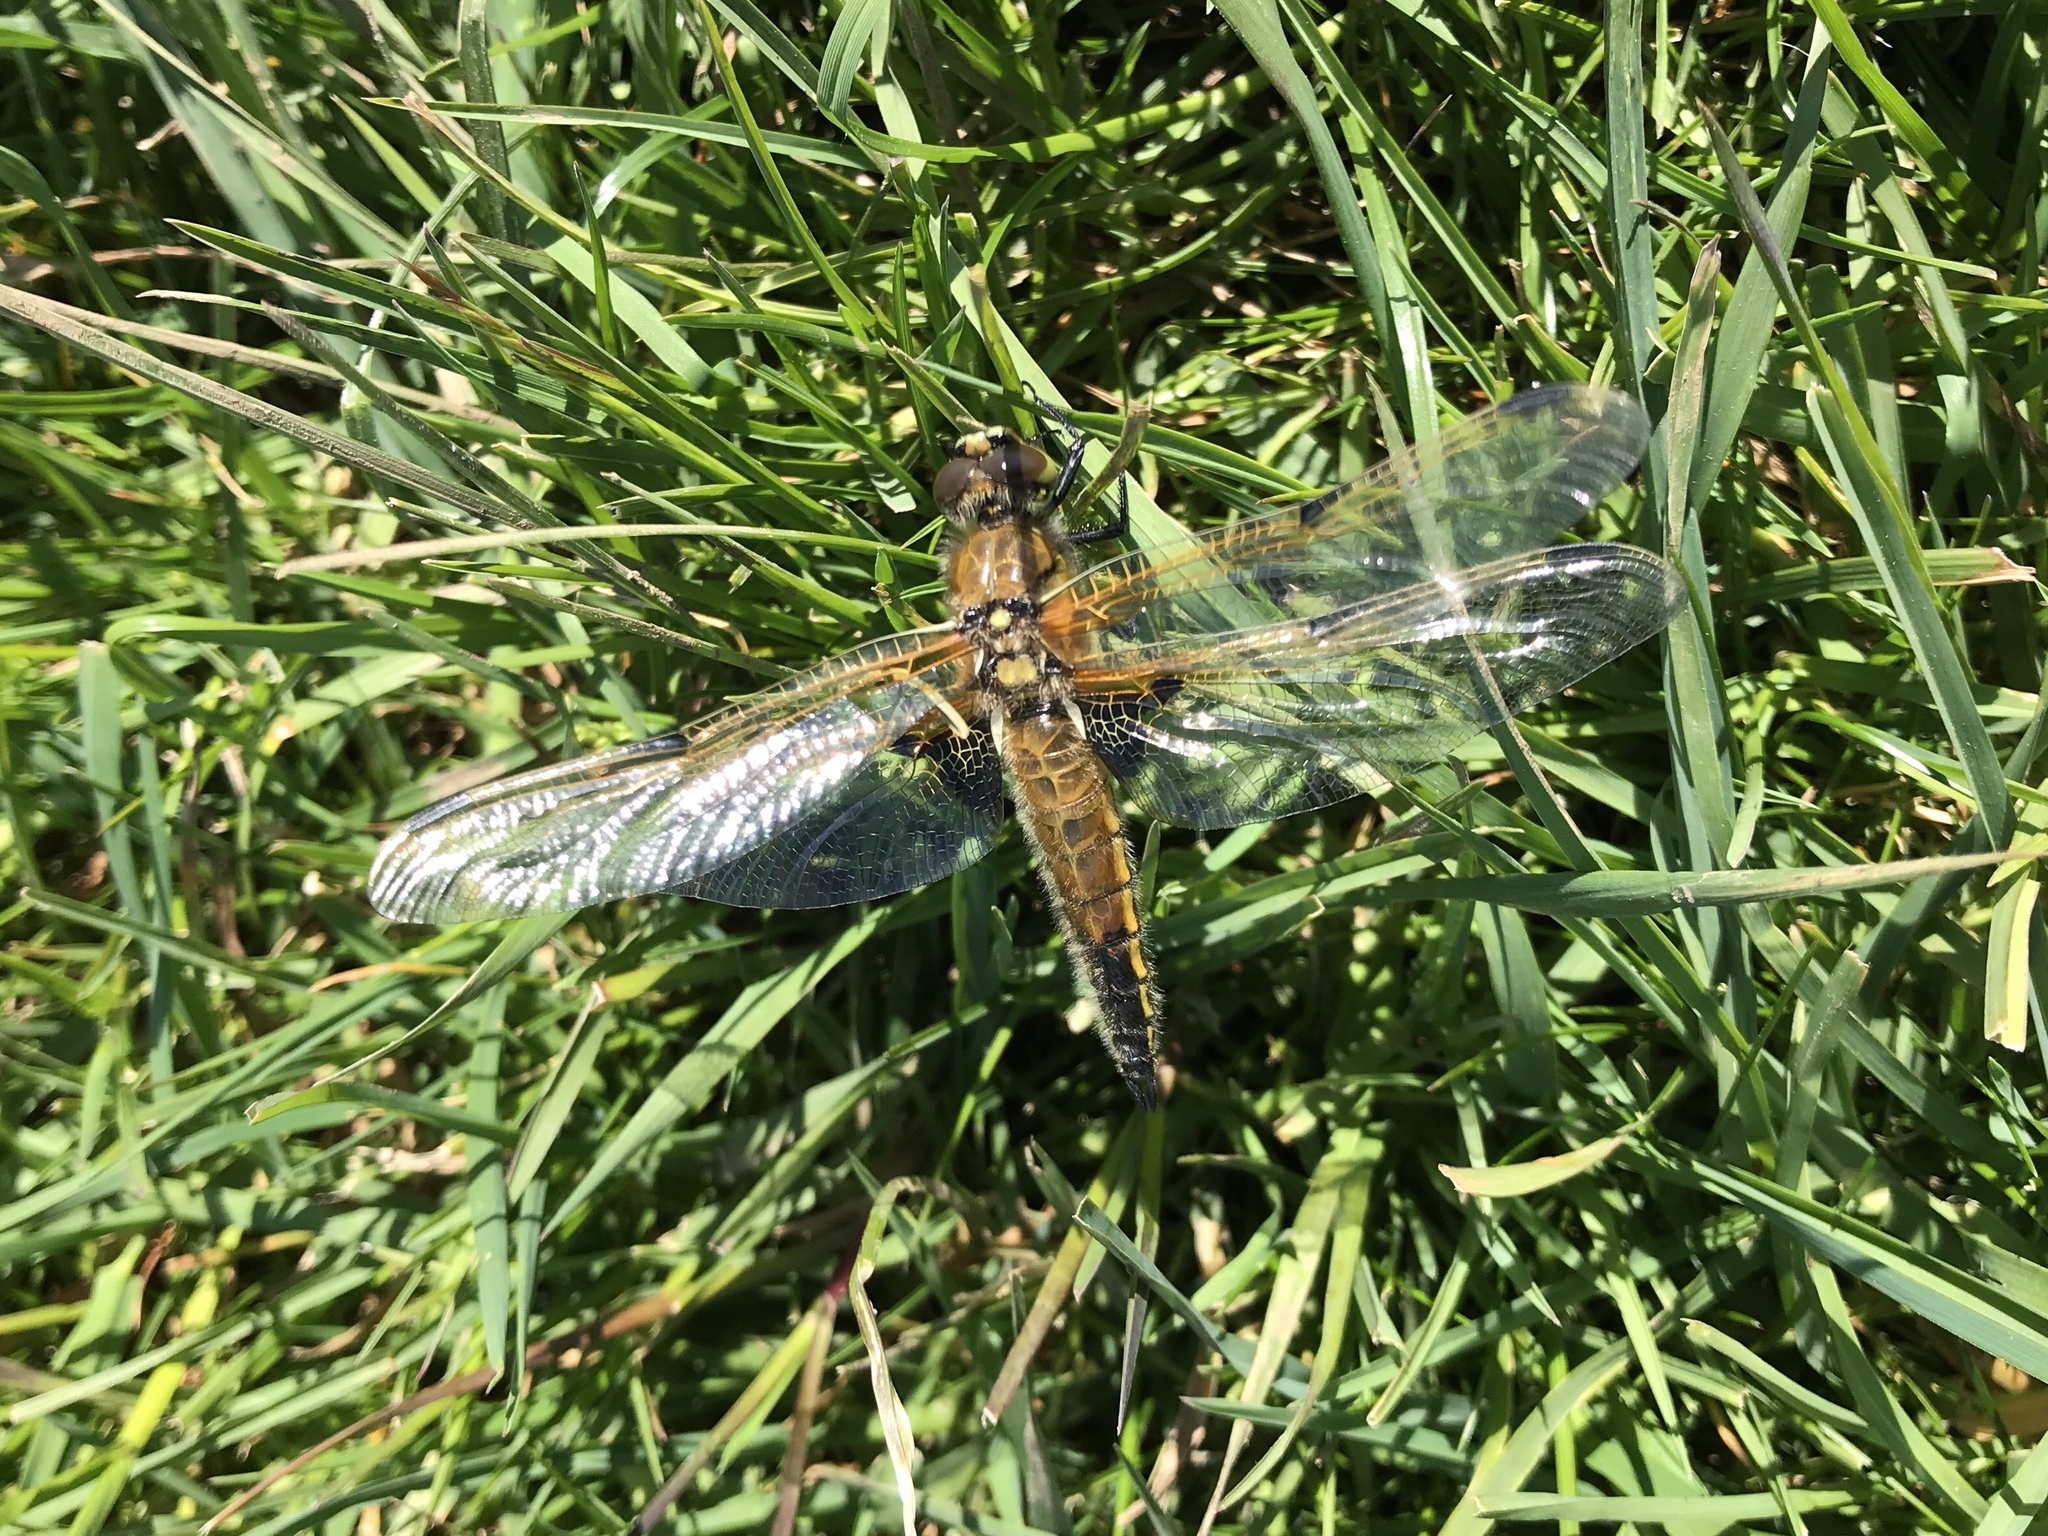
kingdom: Animalia
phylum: Arthropoda
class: Insecta
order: Odonata
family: Libellulidae
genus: Libellula
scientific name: Libellula quadrimaculata
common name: Four-spotted chaser
